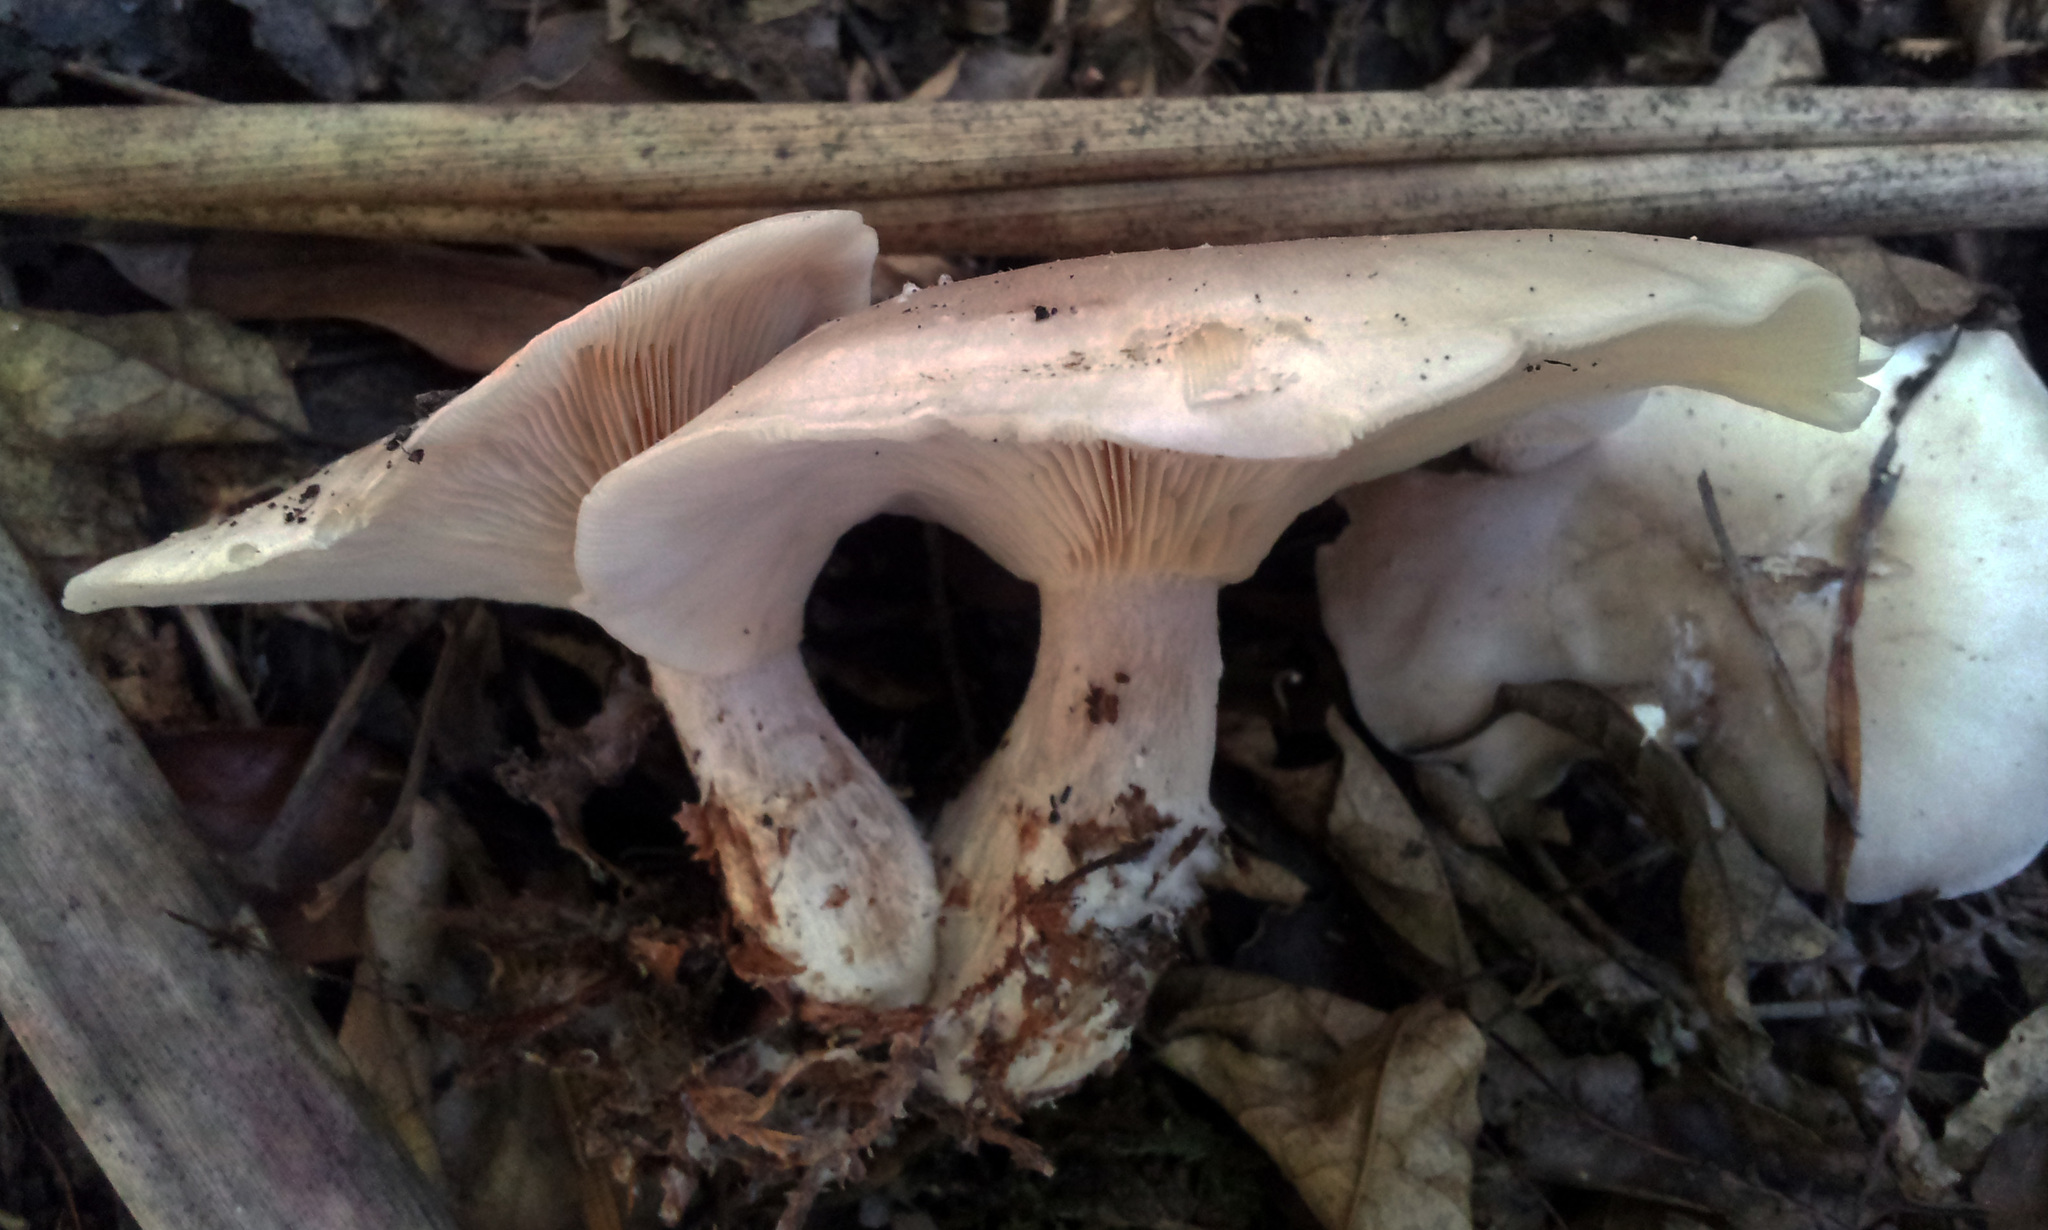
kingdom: Fungi
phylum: Basidiomycota
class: Agaricomycetes
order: Agaricales
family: Tricholomataceae
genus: Clitocybe
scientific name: Clitocybe nebularis
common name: Clouded agaric
